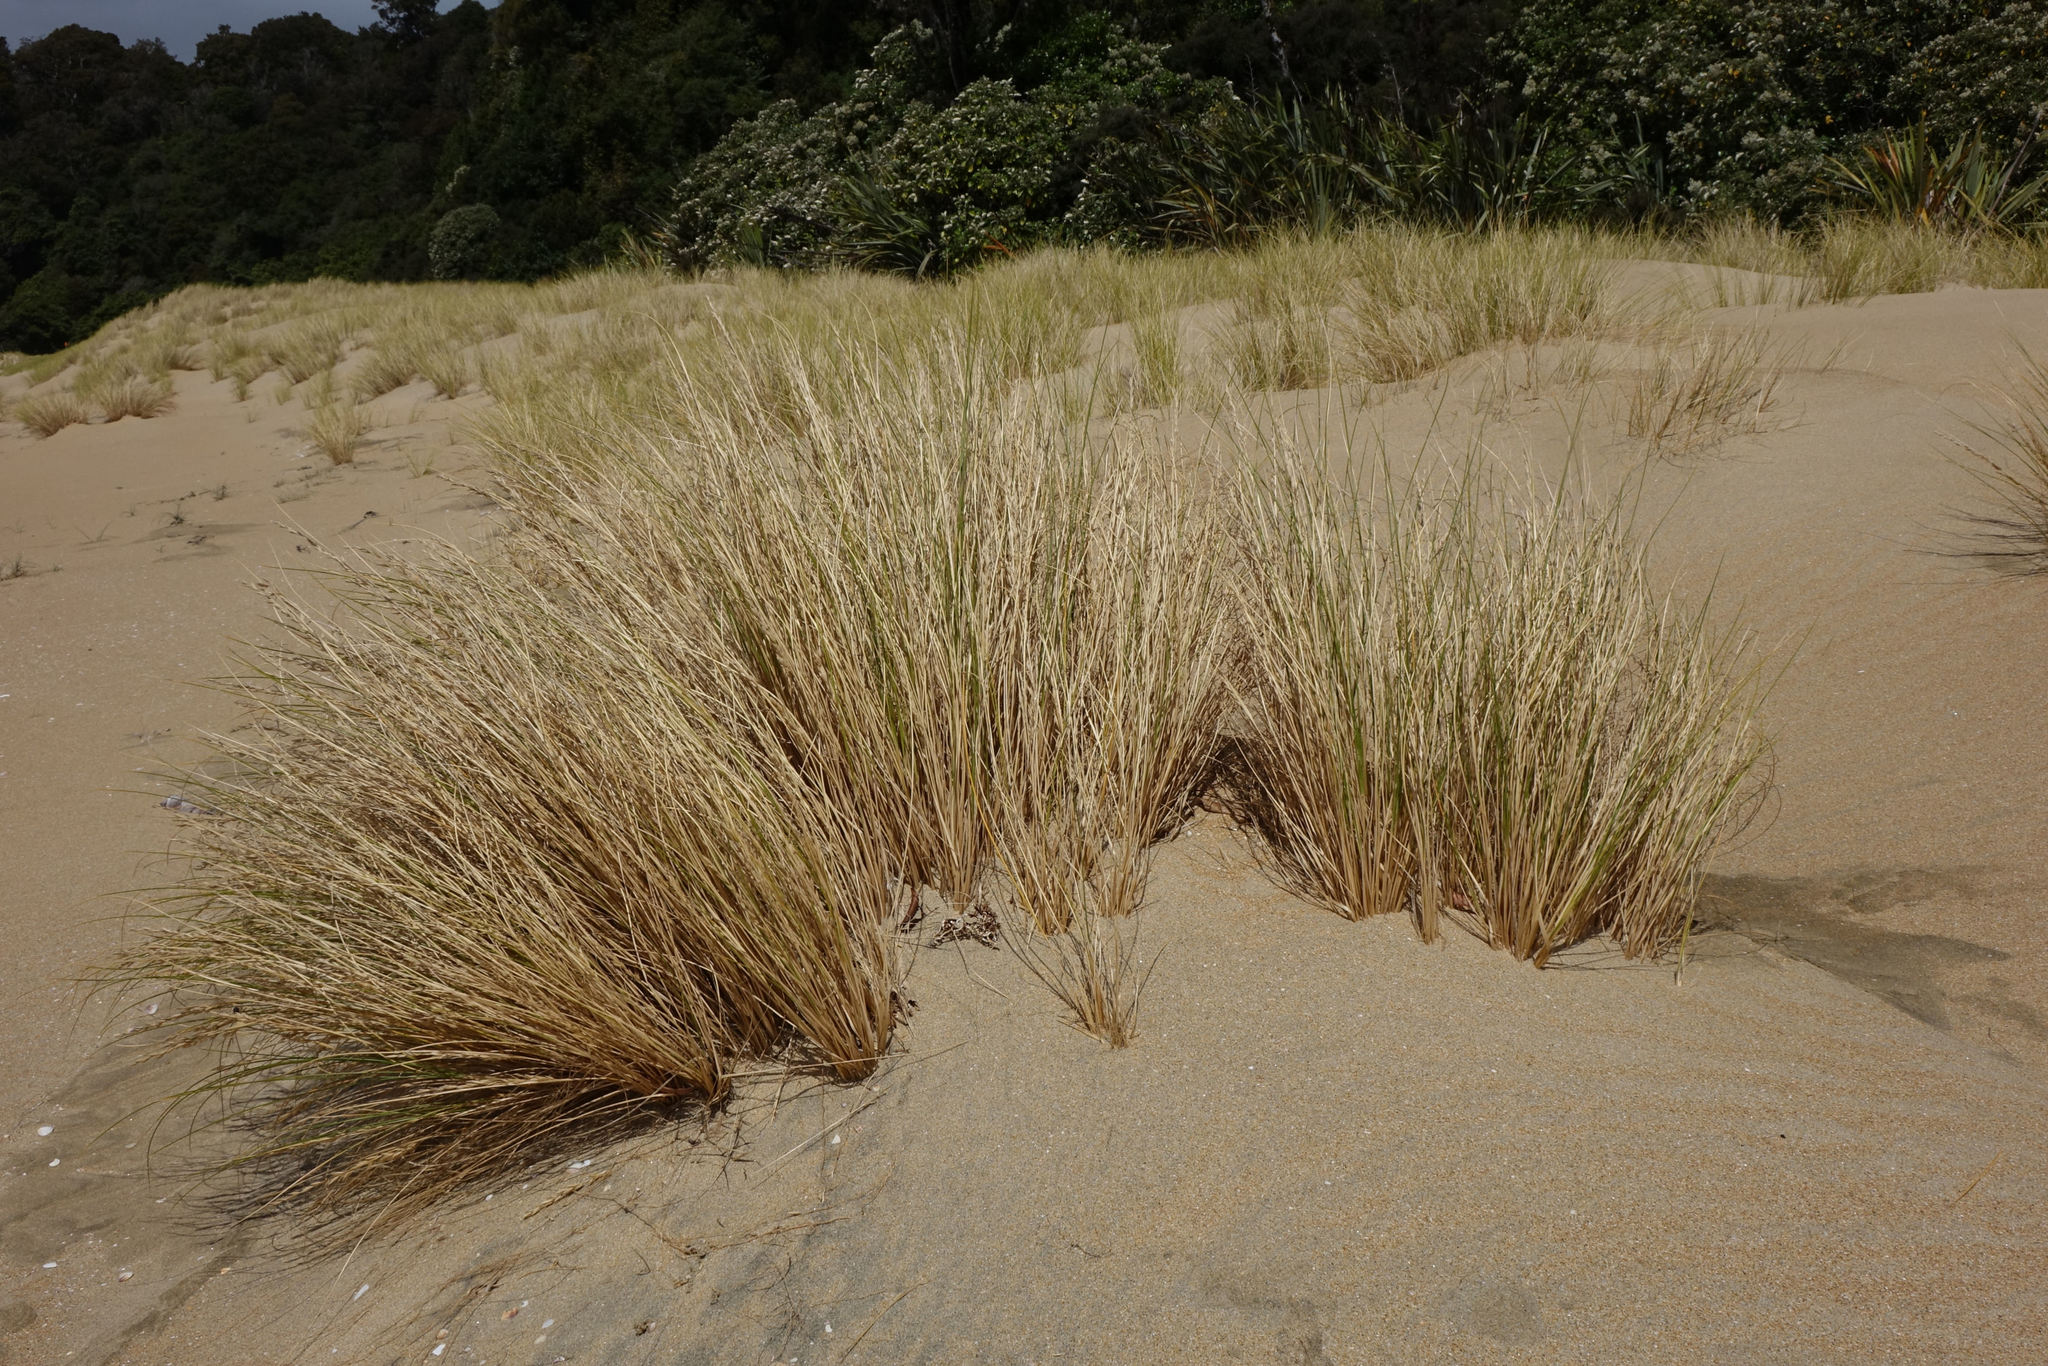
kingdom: Plantae
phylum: Tracheophyta
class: Liliopsida
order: Poales
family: Poaceae
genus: Poa
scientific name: Poa billardierei
